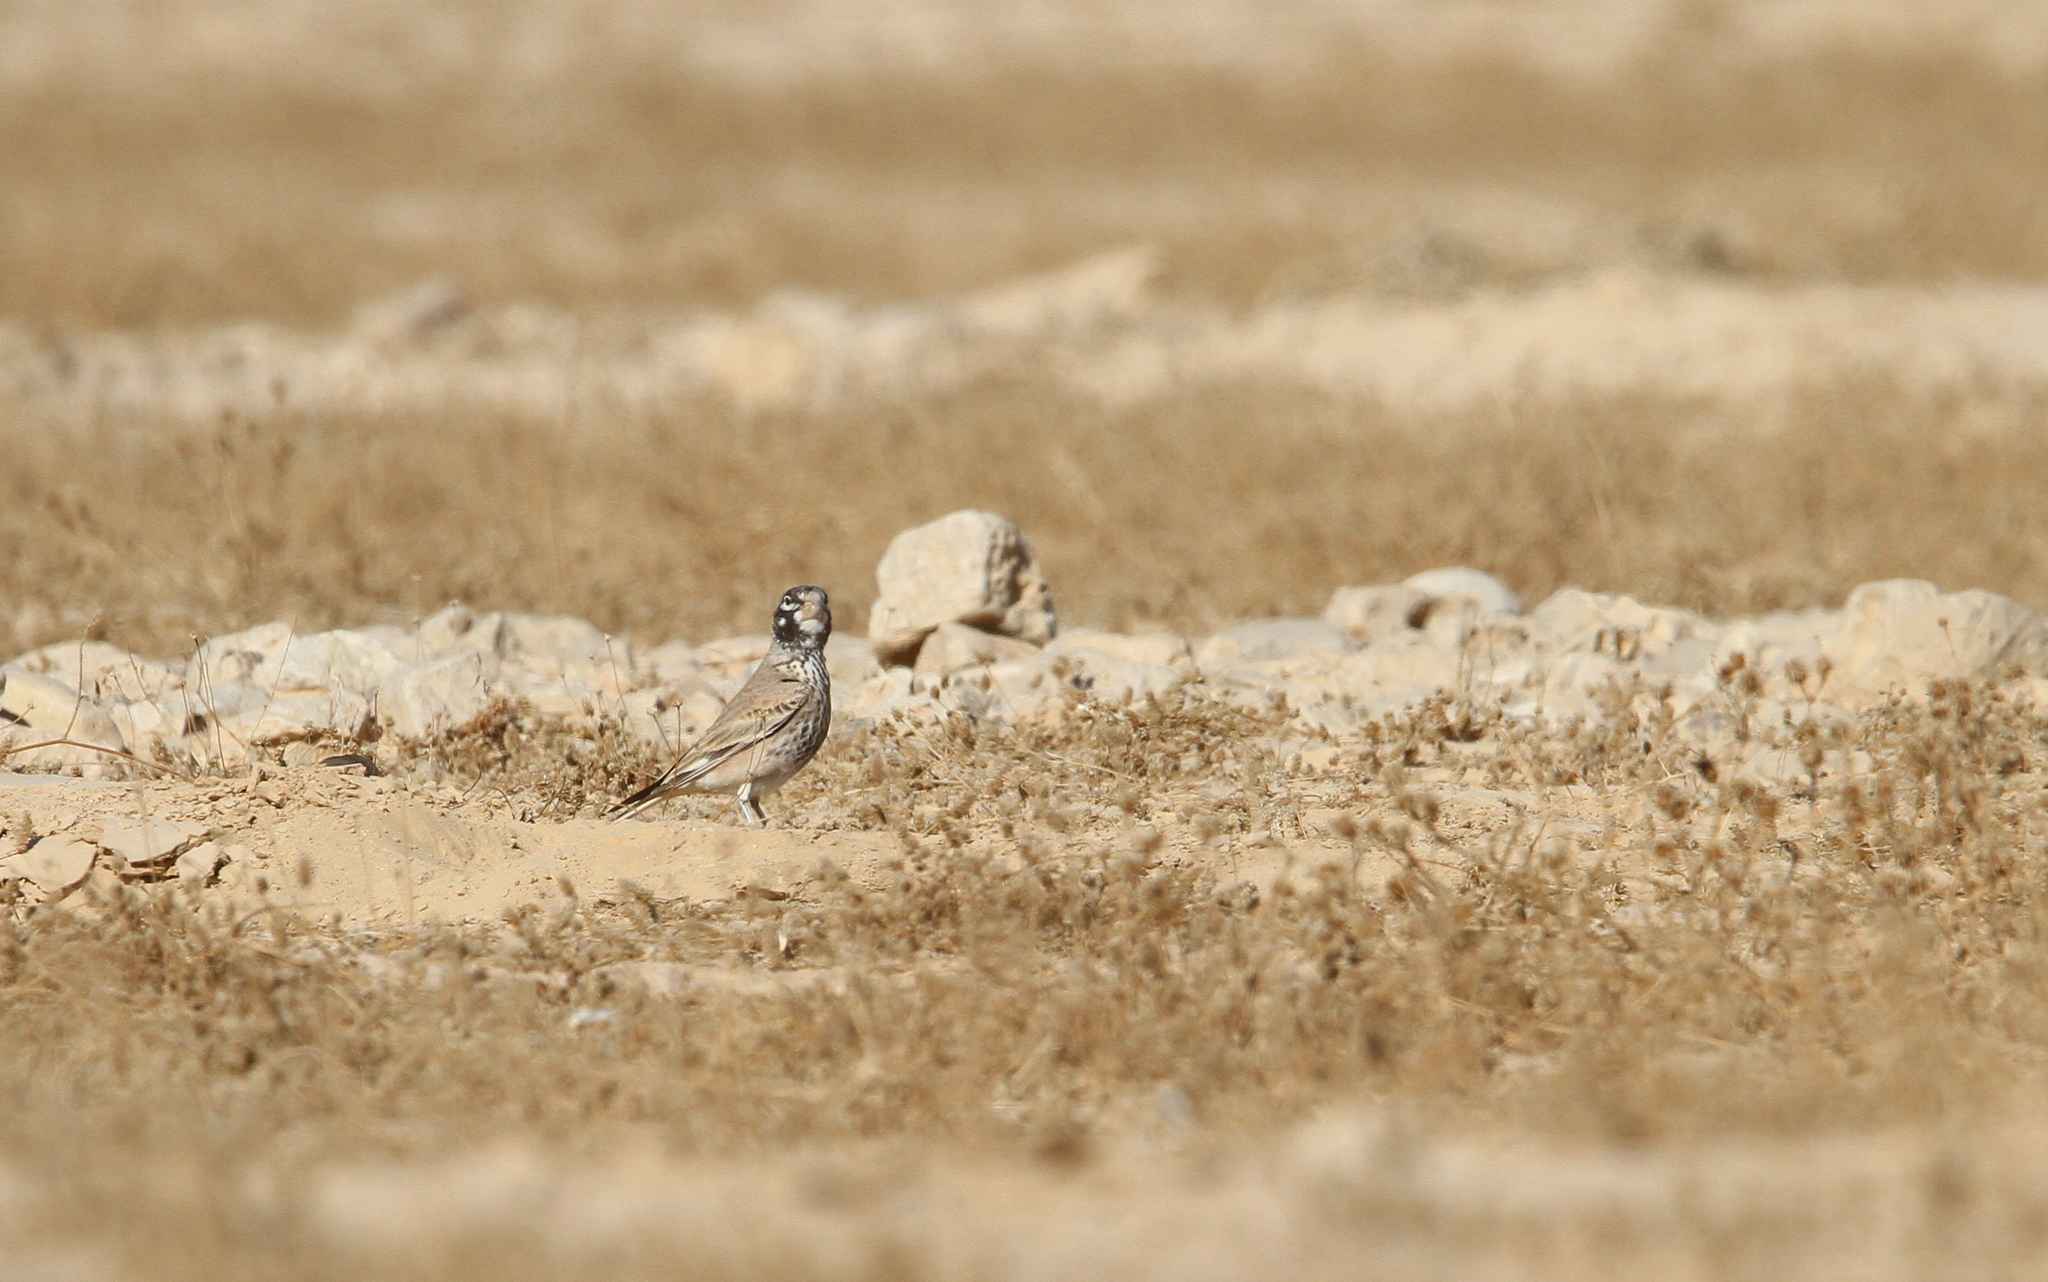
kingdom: Animalia
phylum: Chordata
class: Aves
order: Passeriformes
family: Alaudidae
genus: Ramphocoris
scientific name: Ramphocoris clotbey
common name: Thick-billed lark
